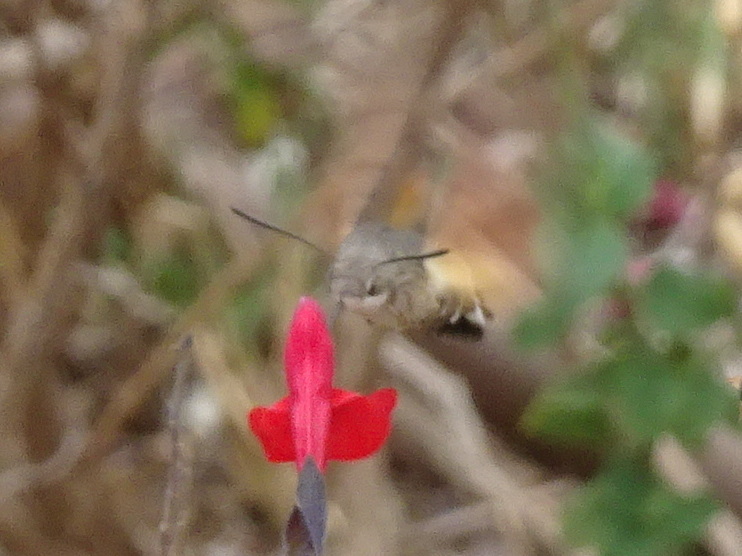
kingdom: Animalia
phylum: Arthropoda
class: Insecta
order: Lepidoptera
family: Sphingidae
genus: Macroglossum
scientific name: Macroglossum stellatarum
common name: Humming-bird hawk-moth
